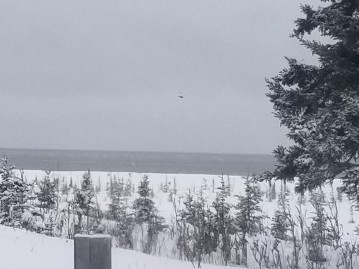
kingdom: Animalia
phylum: Chordata
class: Aves
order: Strigiformes
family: Strigidae
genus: Asio
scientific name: Asio flammeus
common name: Short-eared owl
